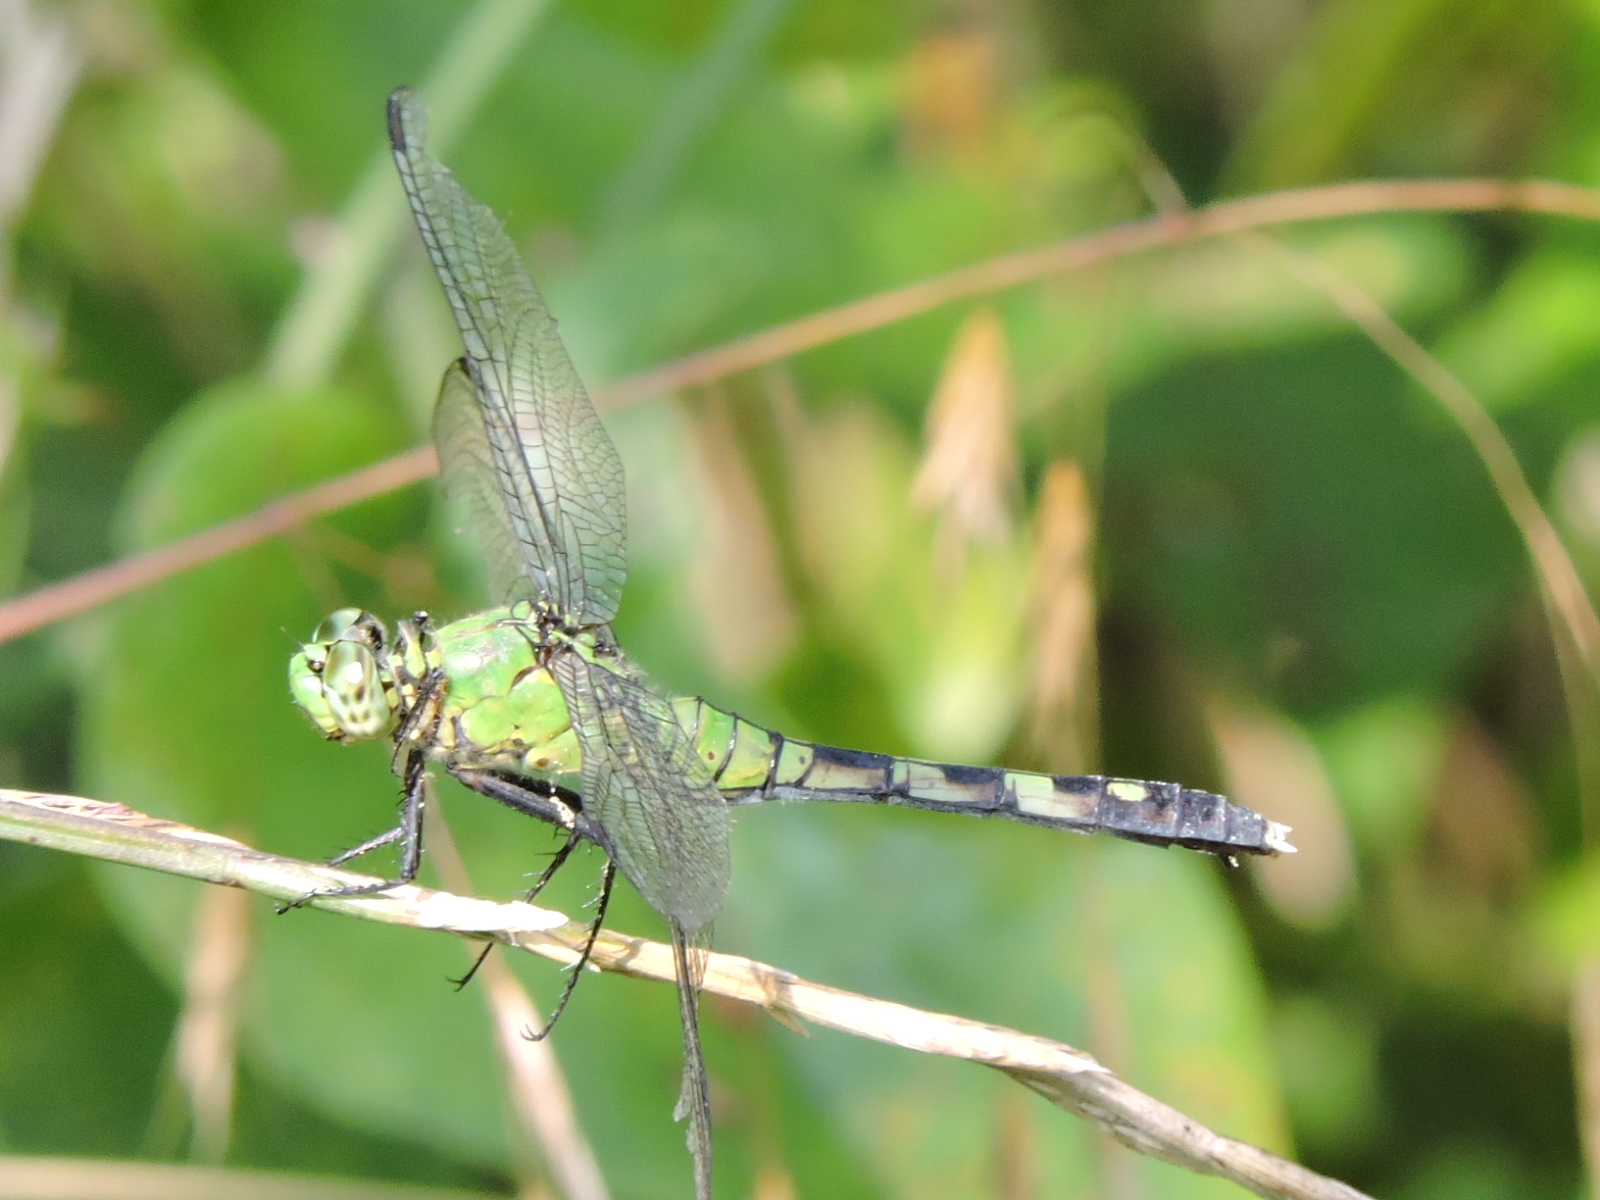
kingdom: Animalia
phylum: Arthropoda
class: Insecta
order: Odonata
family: Libellulidae
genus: Erythemis
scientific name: Erythemis simplicicollis
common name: Eastern pondhawk
